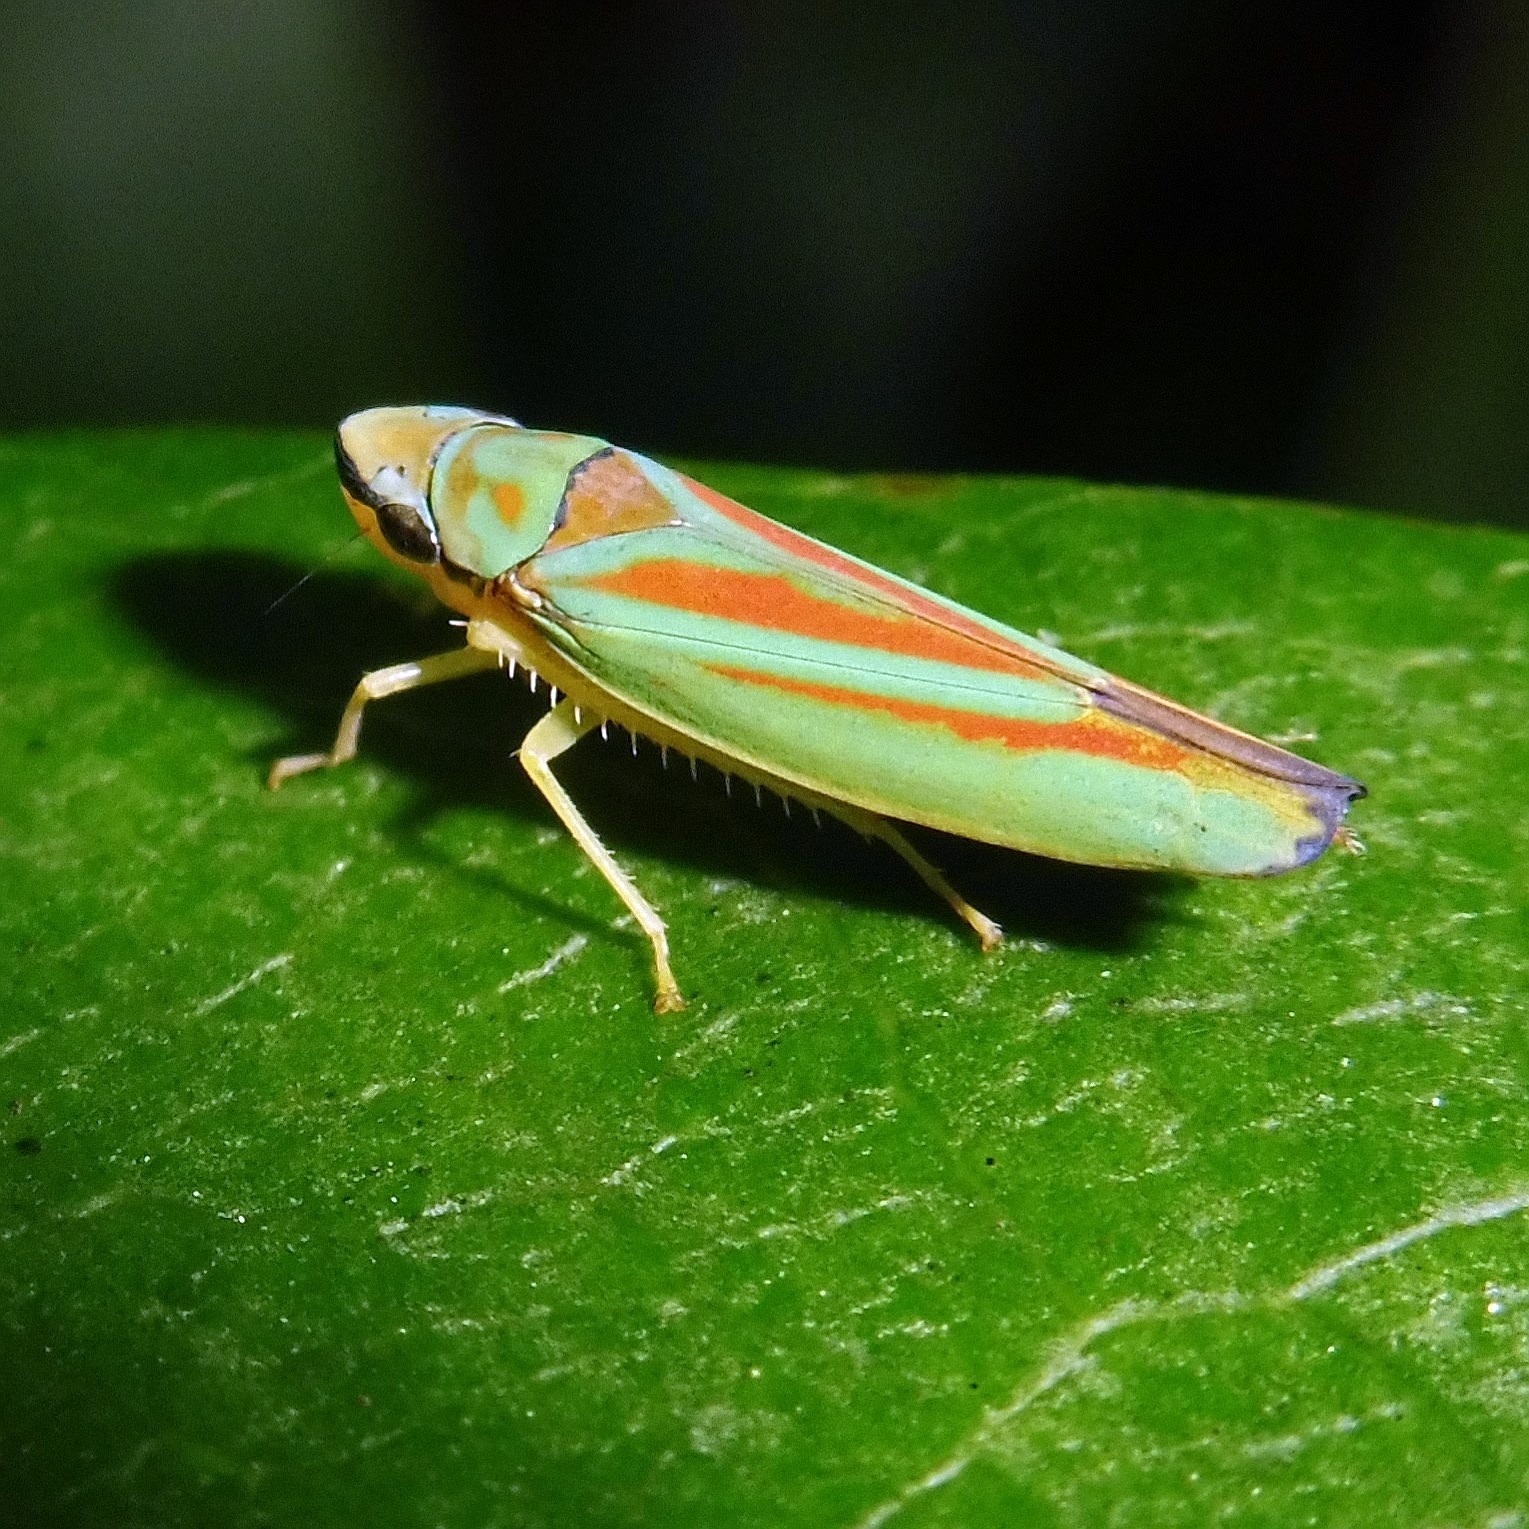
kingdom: Animalia
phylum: Arthropoda
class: Insecta
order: Hemiptera
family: Cicadellidae
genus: Graphocephala
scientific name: Graphocephala fennahi
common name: Rhododendron leafhopper
